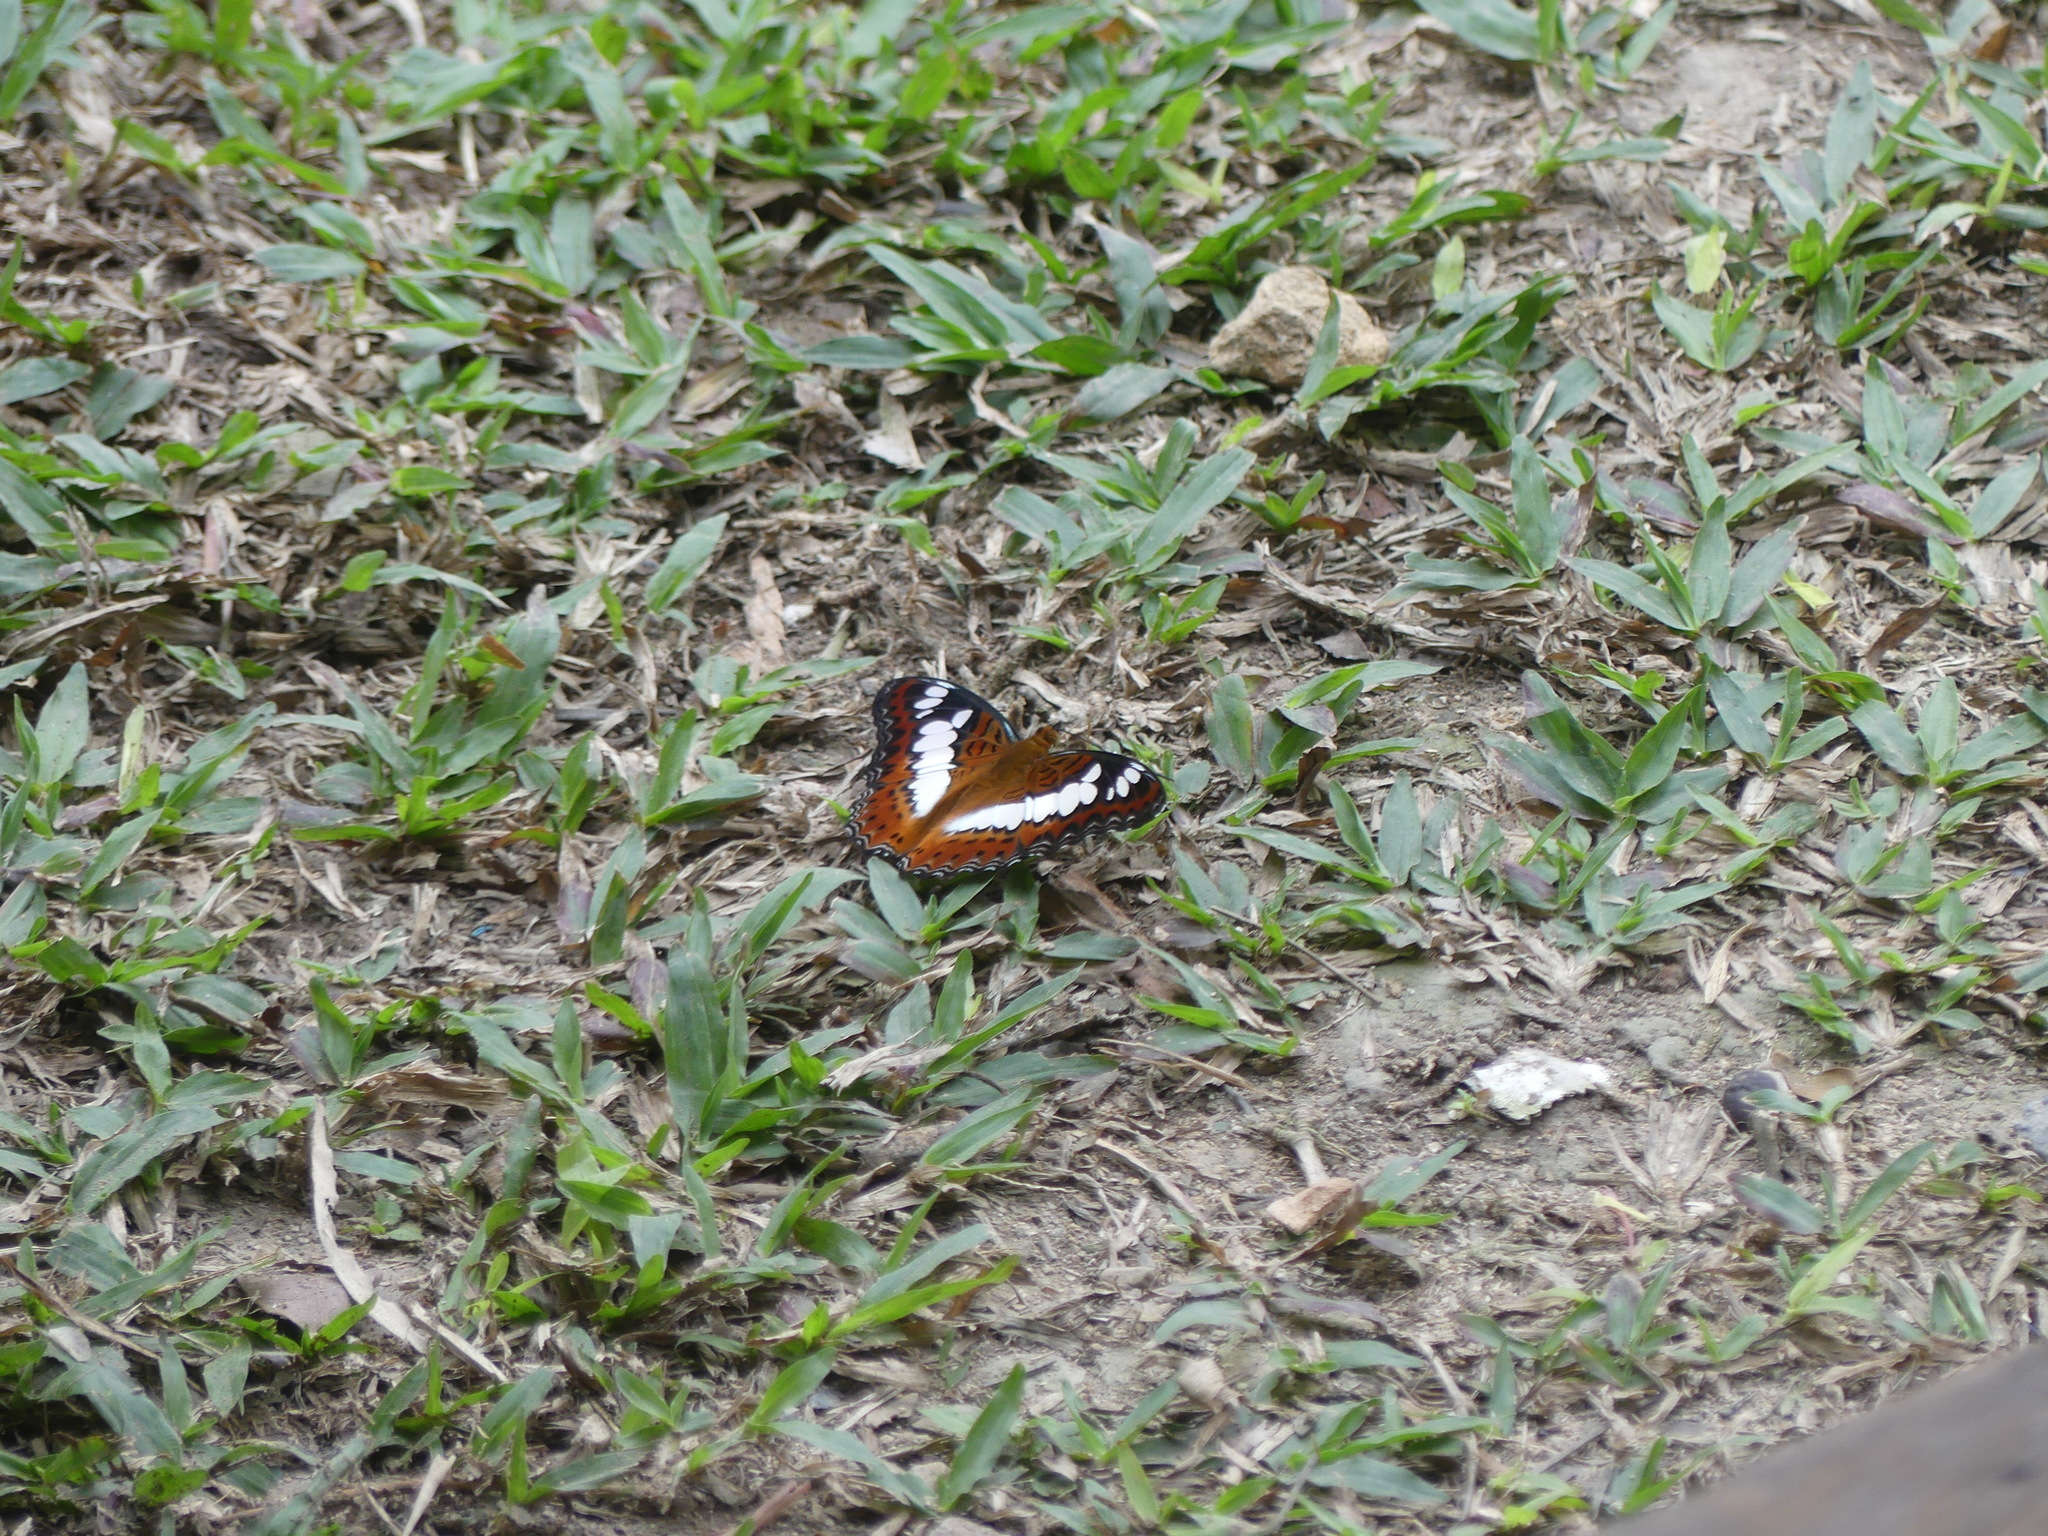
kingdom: Animalia
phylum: Arthropoda
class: Insecta
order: Lepidoptera
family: Nymphalidae
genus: Limenitis
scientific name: Limenitis Moduza procris
